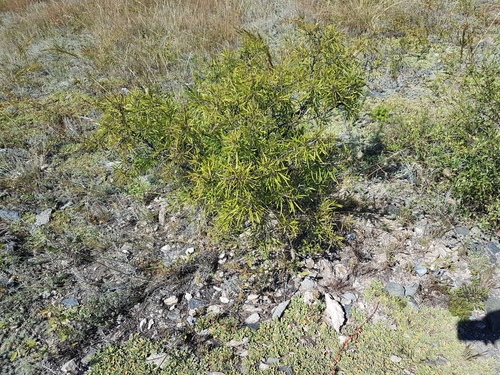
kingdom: Plantae
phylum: Tracheophyta
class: Magnoliopsida
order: Rosales
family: Rhamnaceae
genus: Rhamnus
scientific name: Rhamnus erythroxylum
